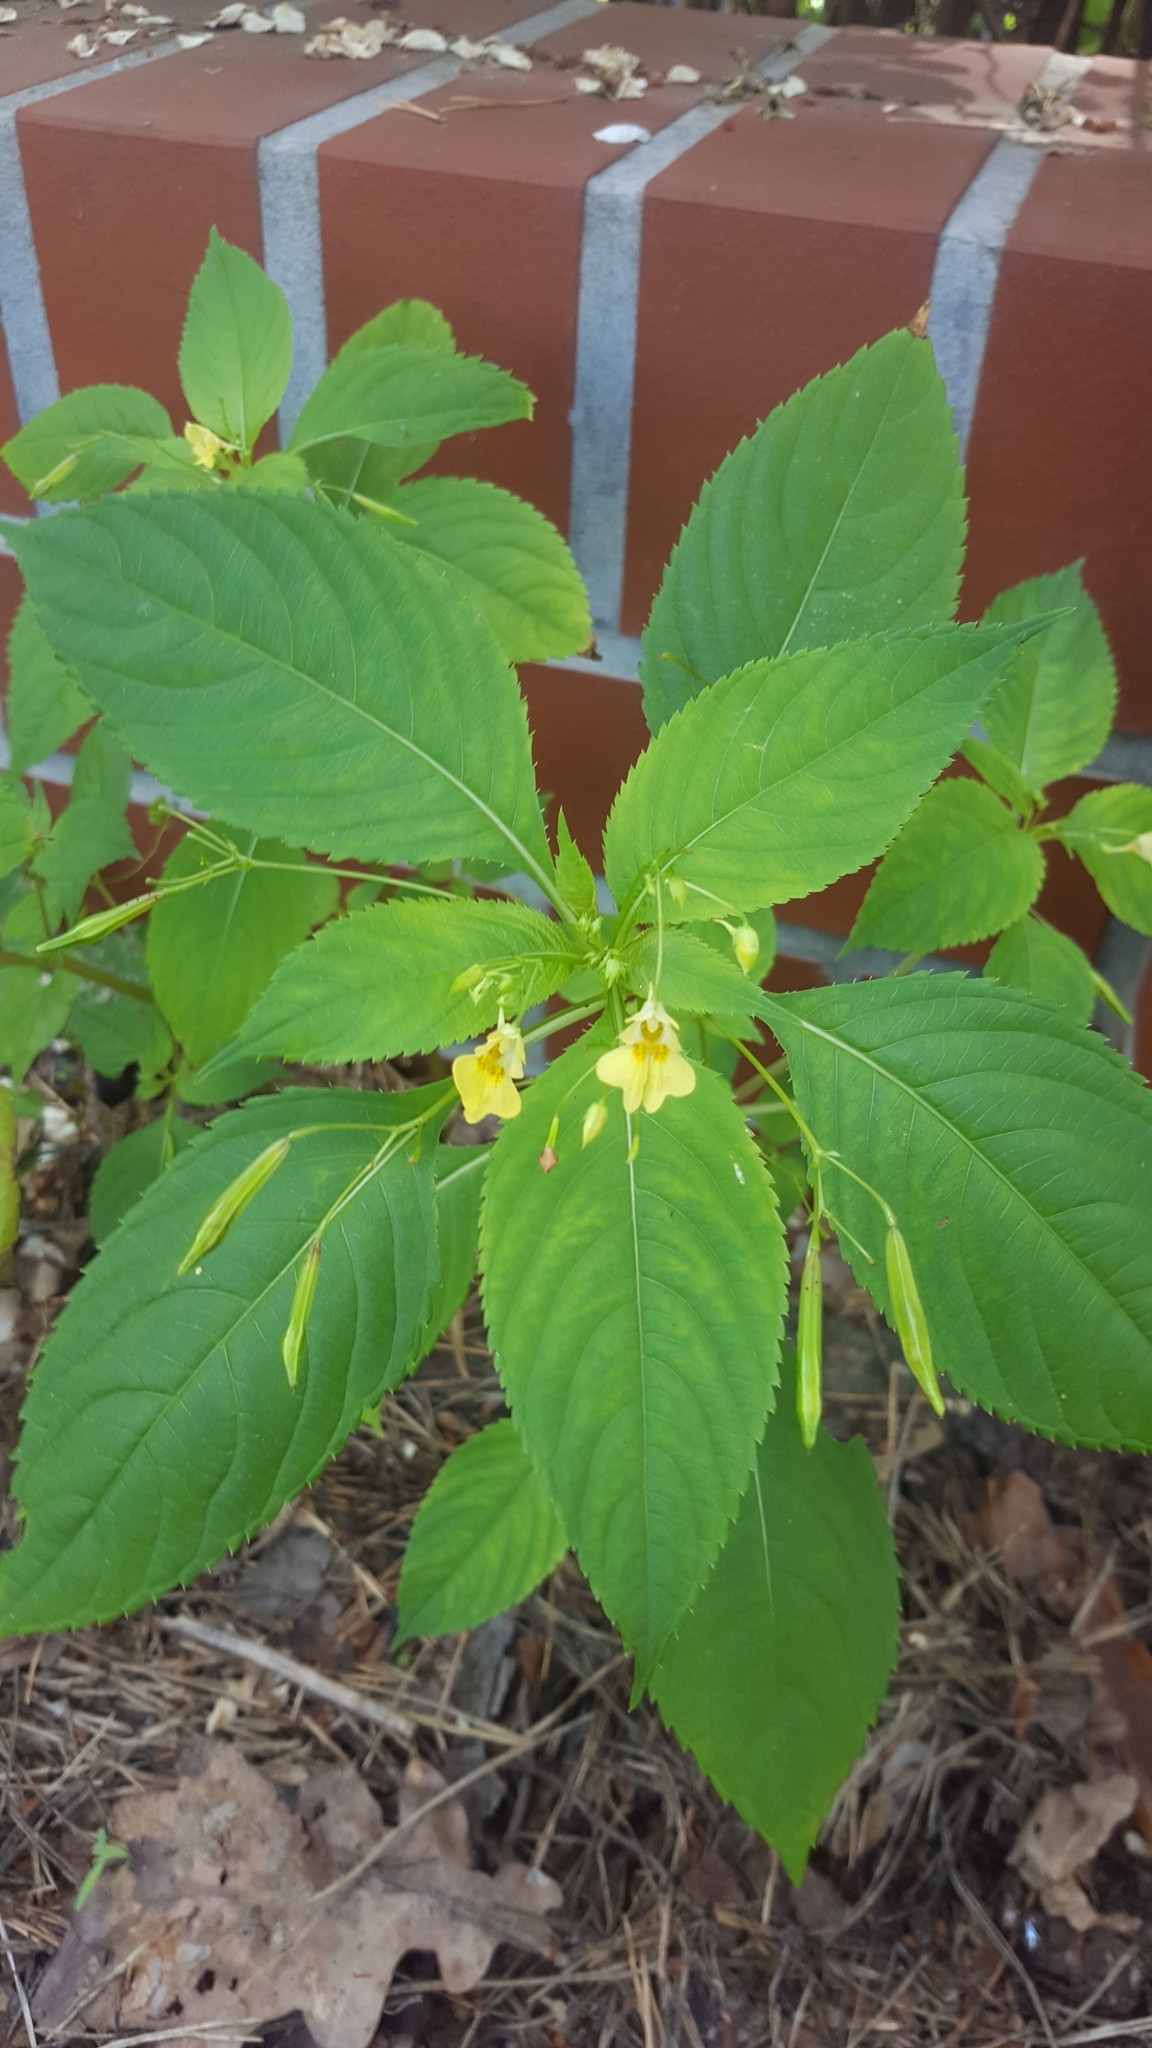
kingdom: Plantae
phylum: Tracheophyta
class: Magnoliopsida
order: Ericales
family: Balsaminaceae
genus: Impatiens
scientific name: Impatiens parviflora
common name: Small balsam
